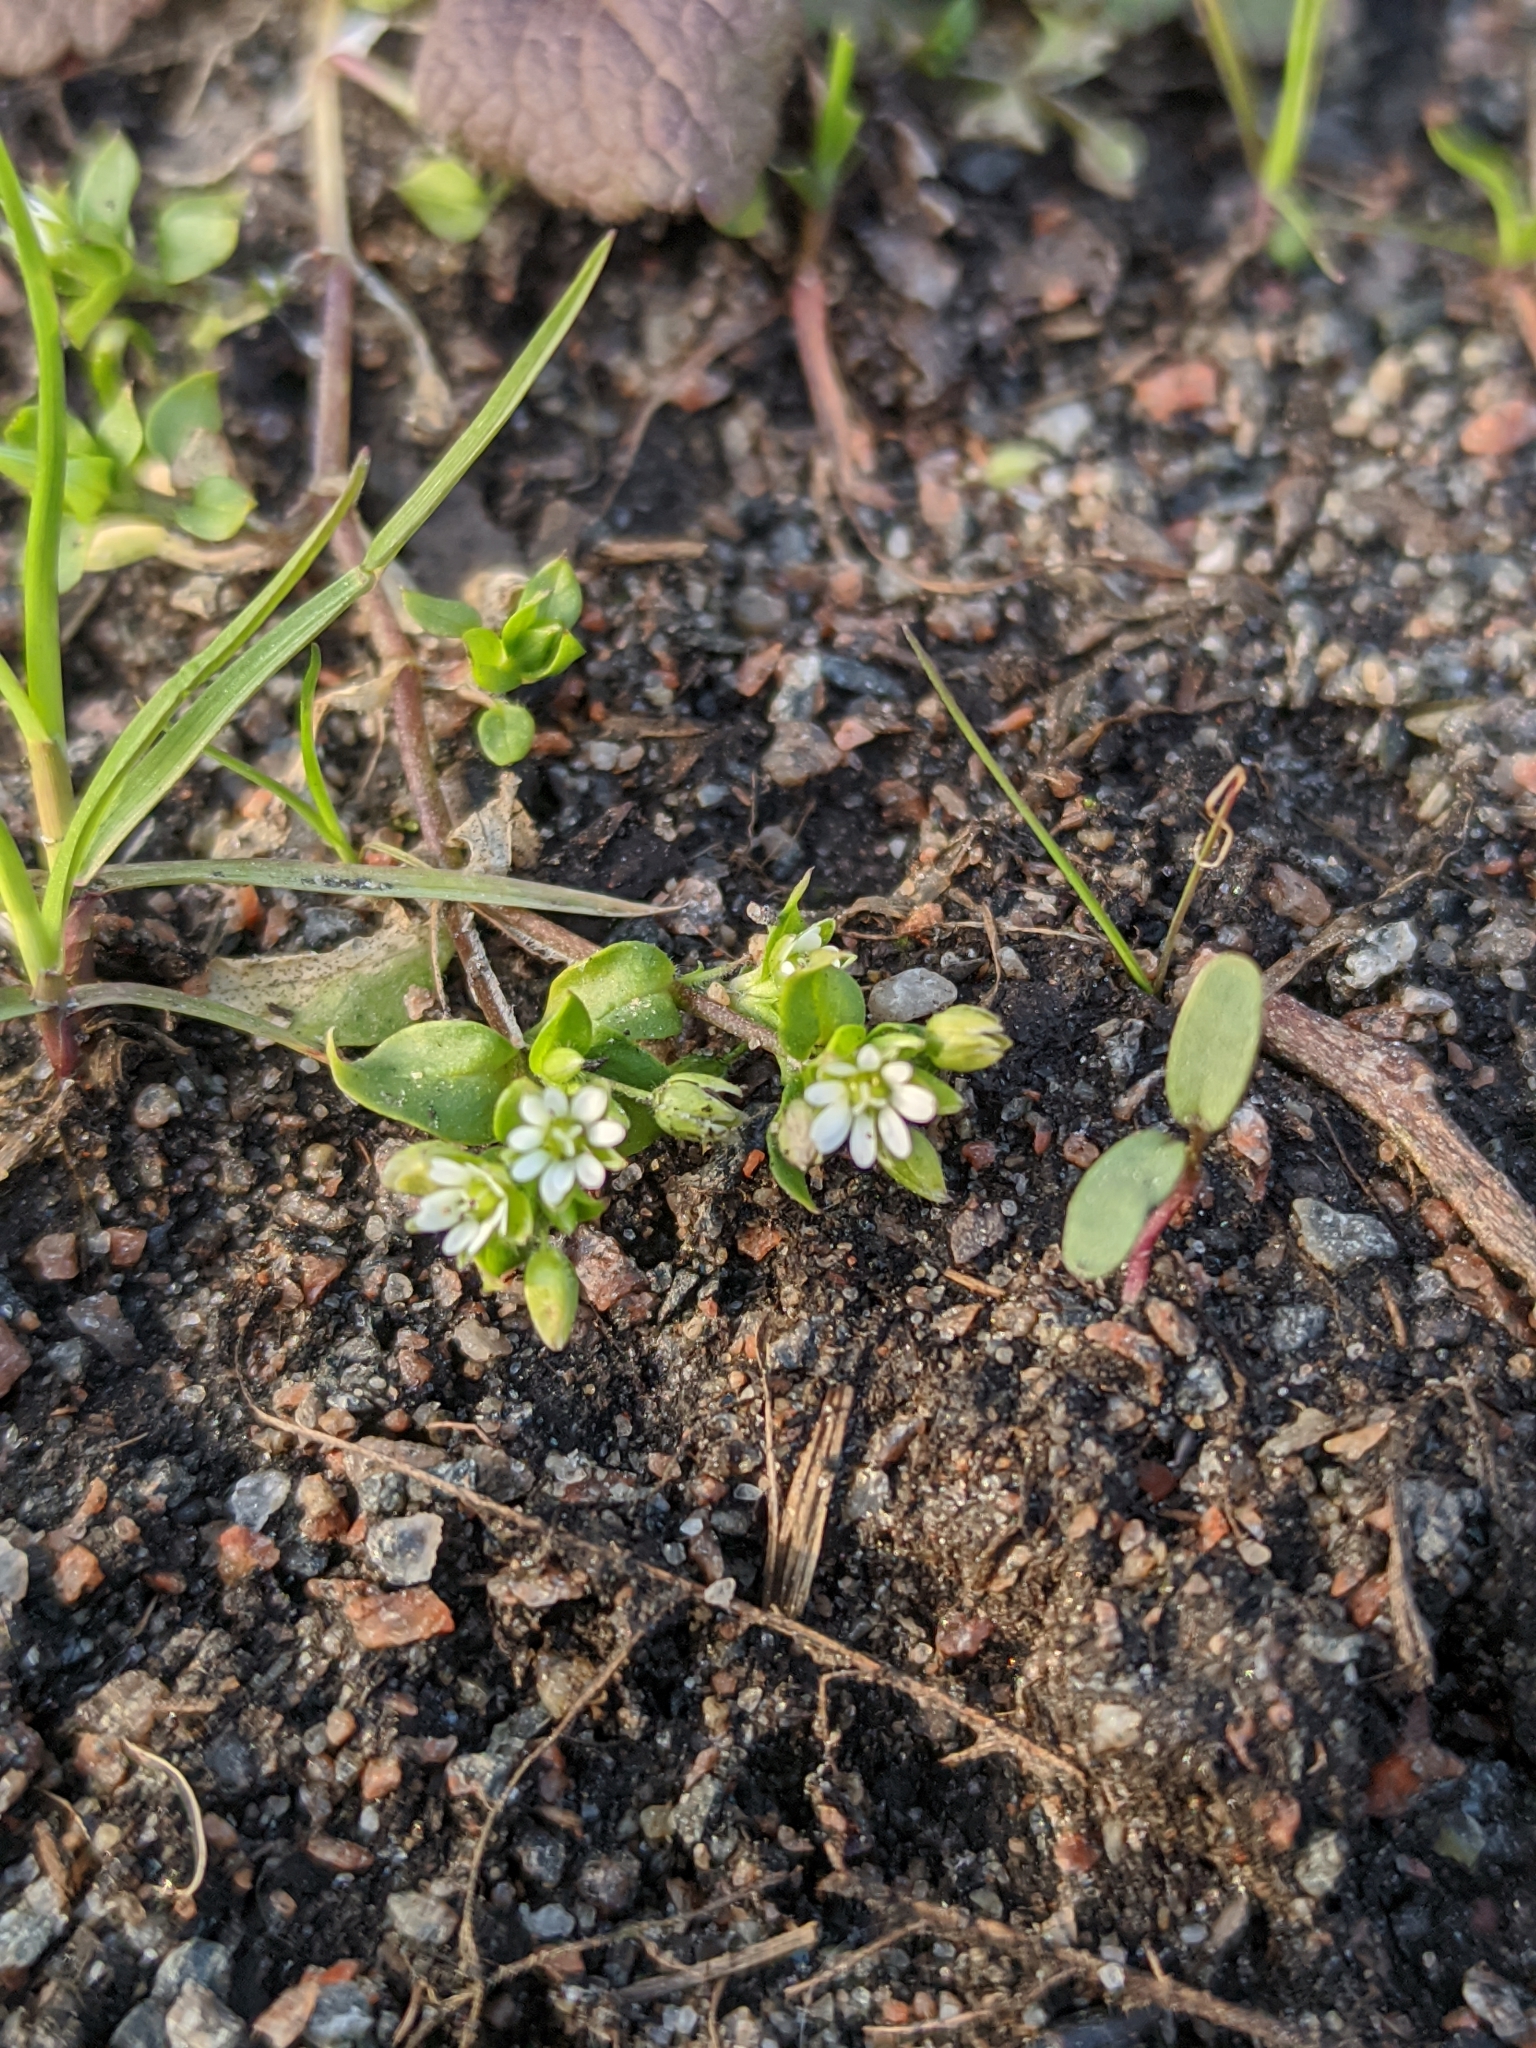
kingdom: Plantae
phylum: Tracheophyta
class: Magnoliopsida
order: Caryophyllales
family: Caryophyllaceae
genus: Stellaria
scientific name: Stellaria media
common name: Common chickweed
